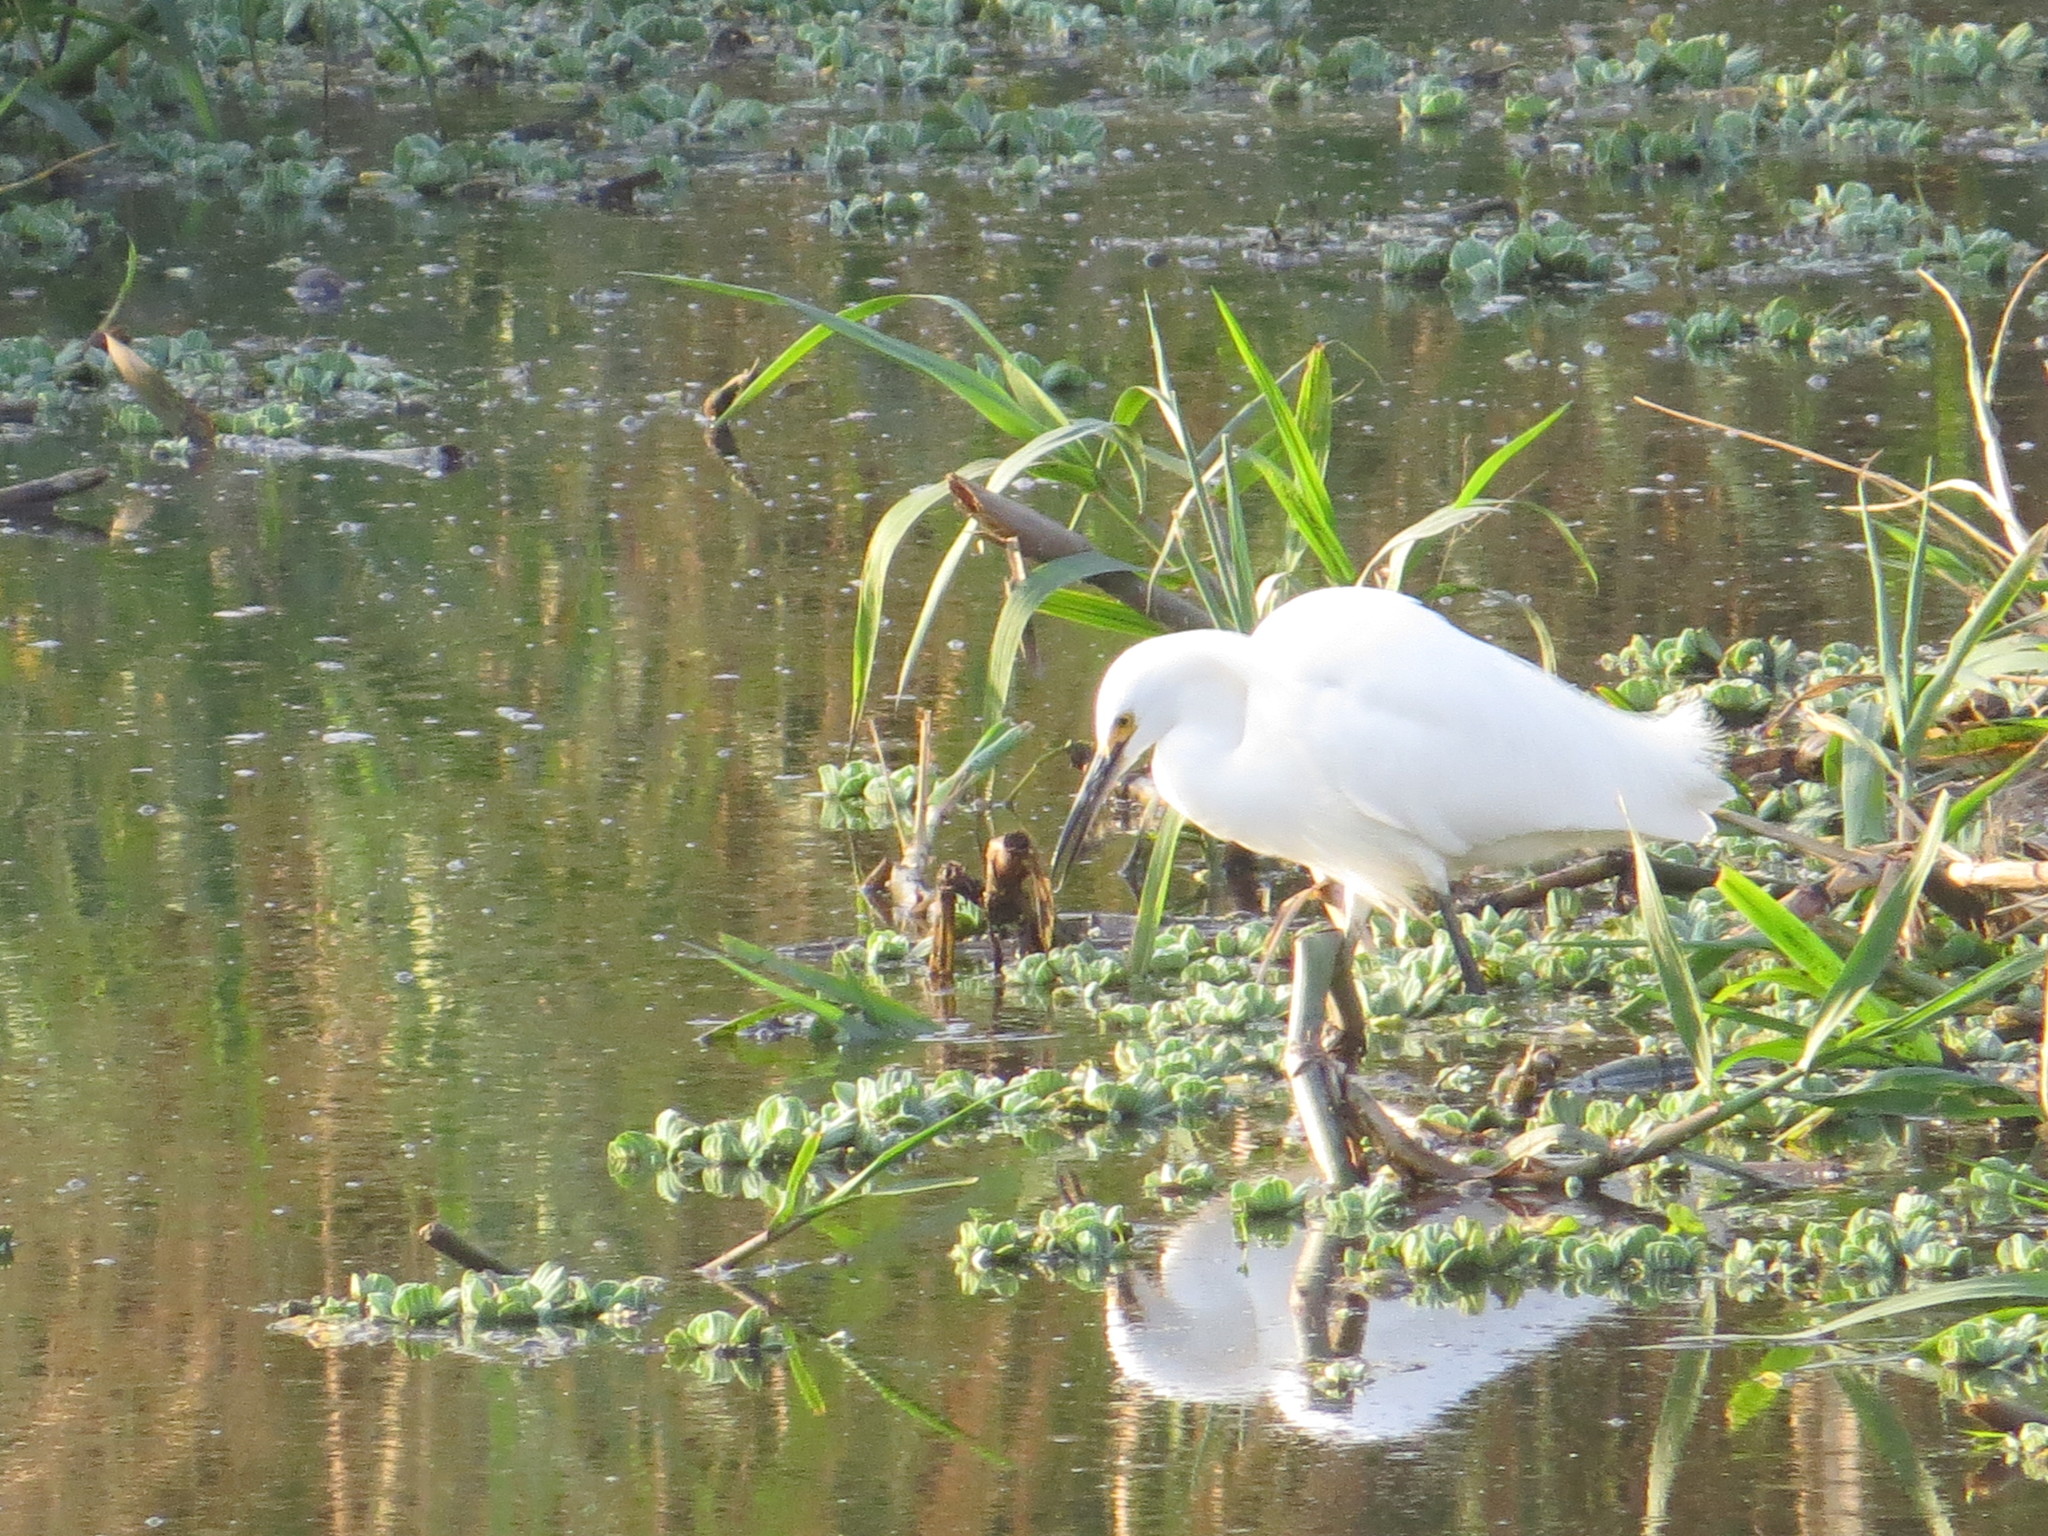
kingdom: Animalia
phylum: Chordata
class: Aves
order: Pelecaniformes
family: Ardeidae
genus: Egretta
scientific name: Egretta thula
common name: Snowy egret
